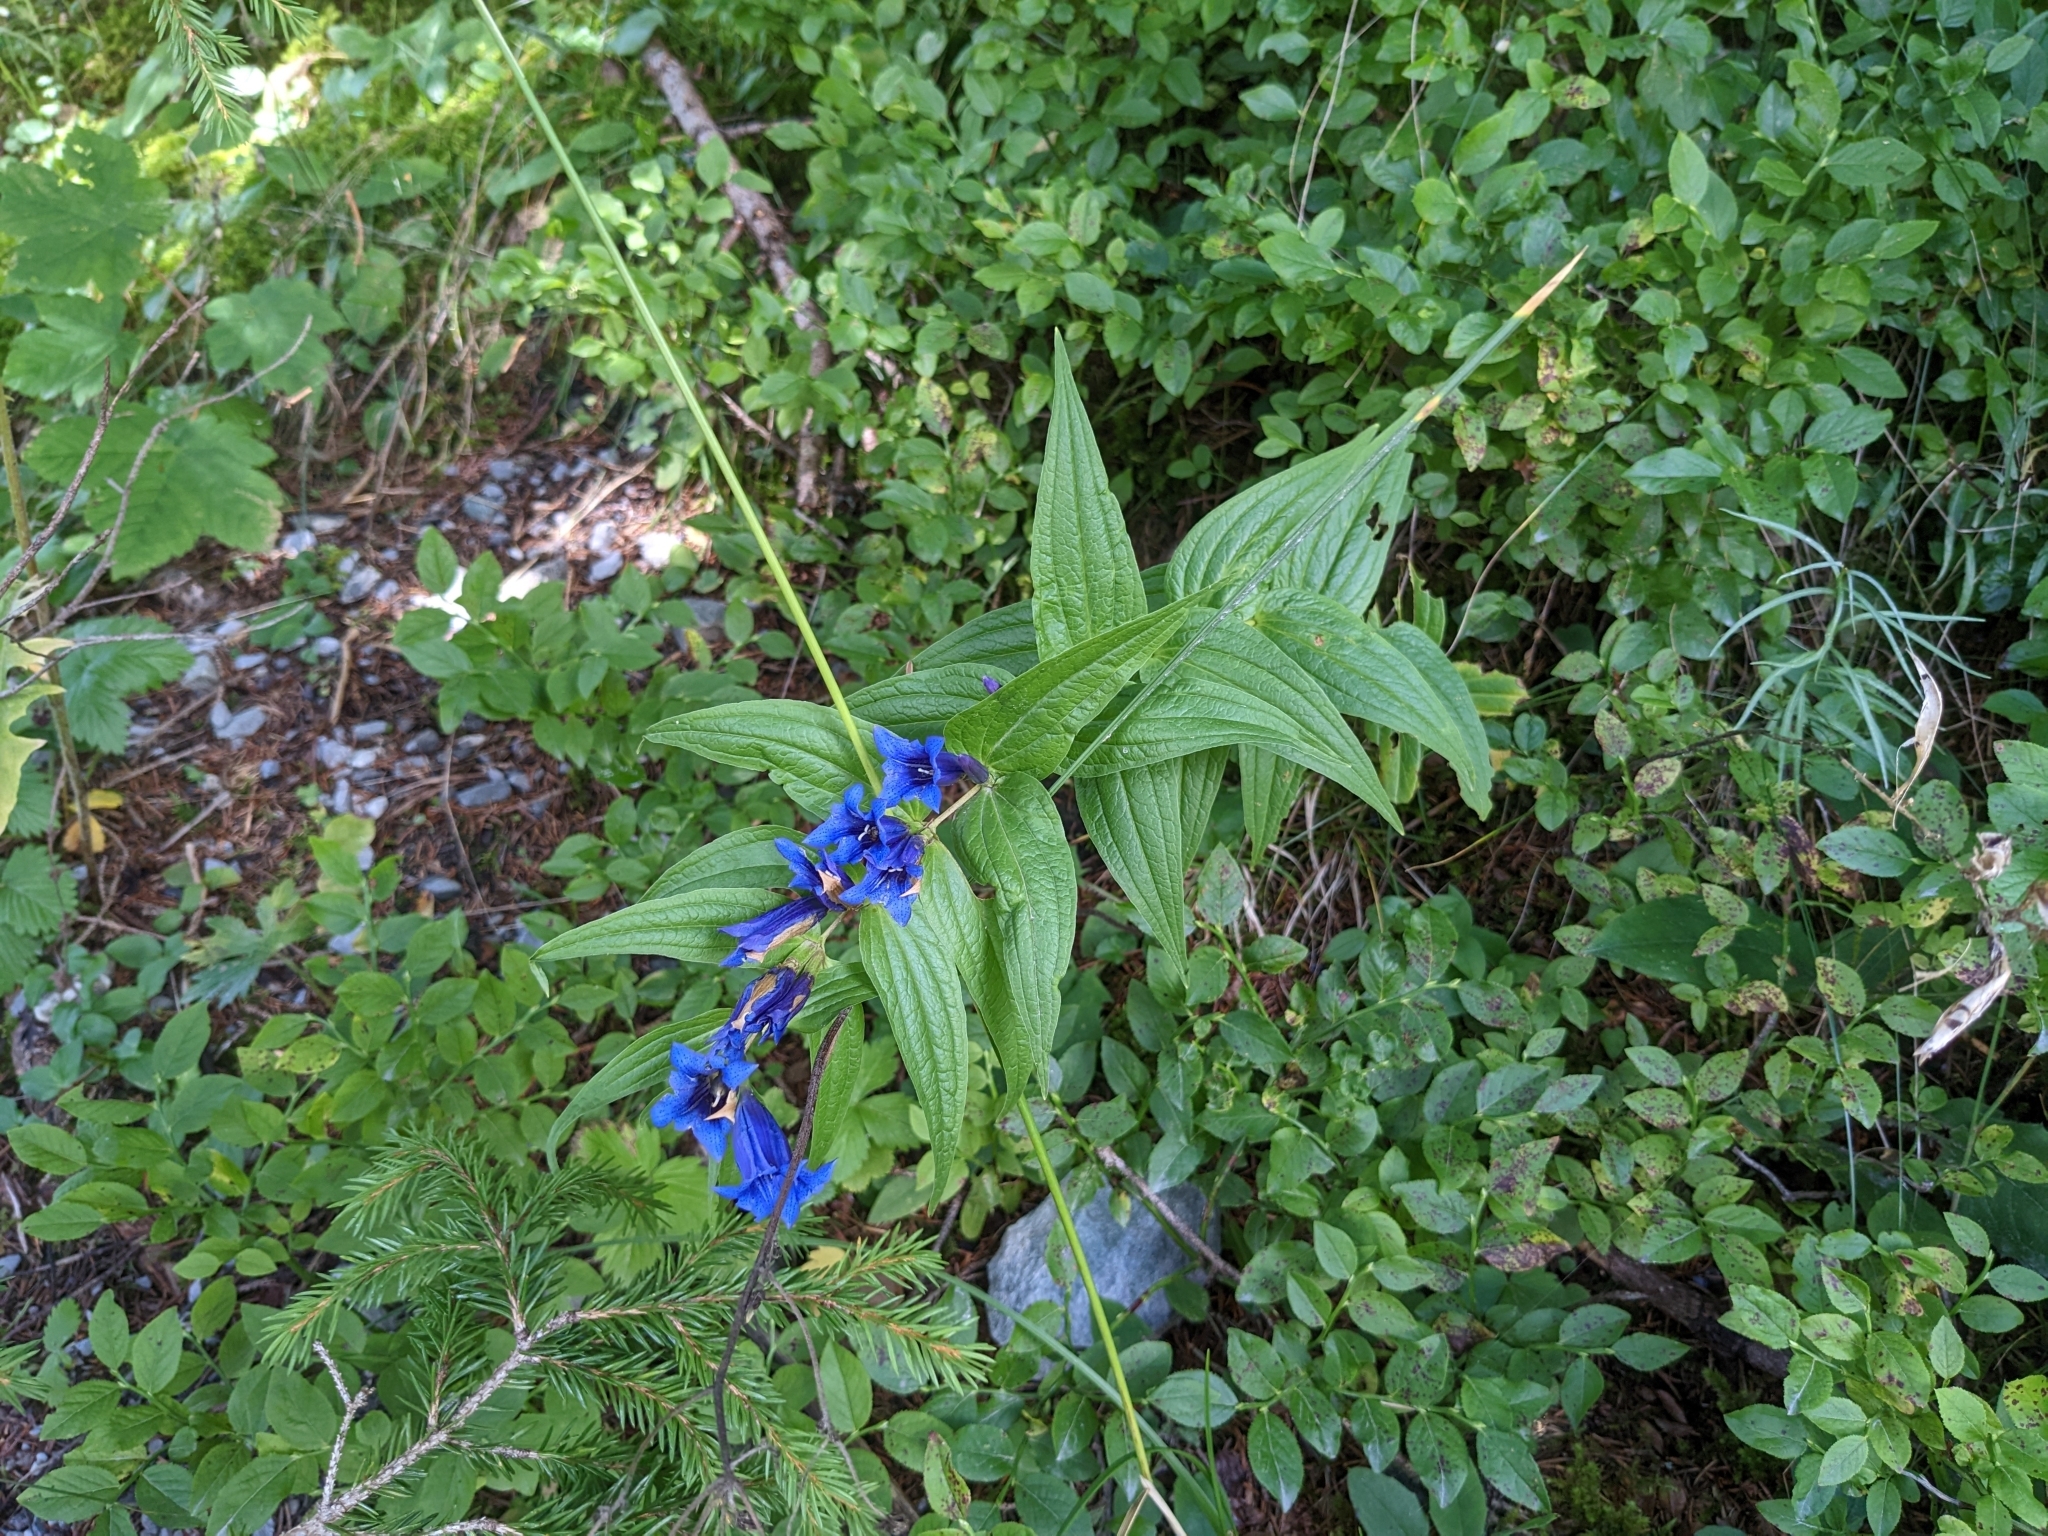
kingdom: Plantae
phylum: Tracheophyta
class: Magnoliopsida
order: Gentianales
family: Gentianaceae
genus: Gentiana
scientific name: Gentiana asclepiadea
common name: Willow gentian
